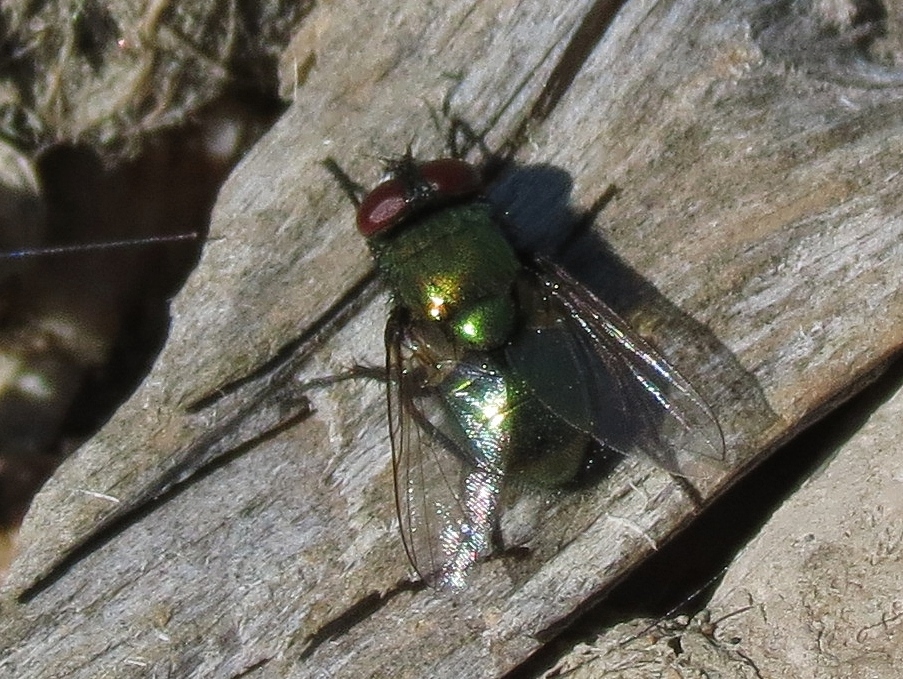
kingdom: Animalia
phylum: Arthropoda
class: Insecta
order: Diptera
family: Muscidae
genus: Neomyia
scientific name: Neomyia cornicina
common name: House fly
